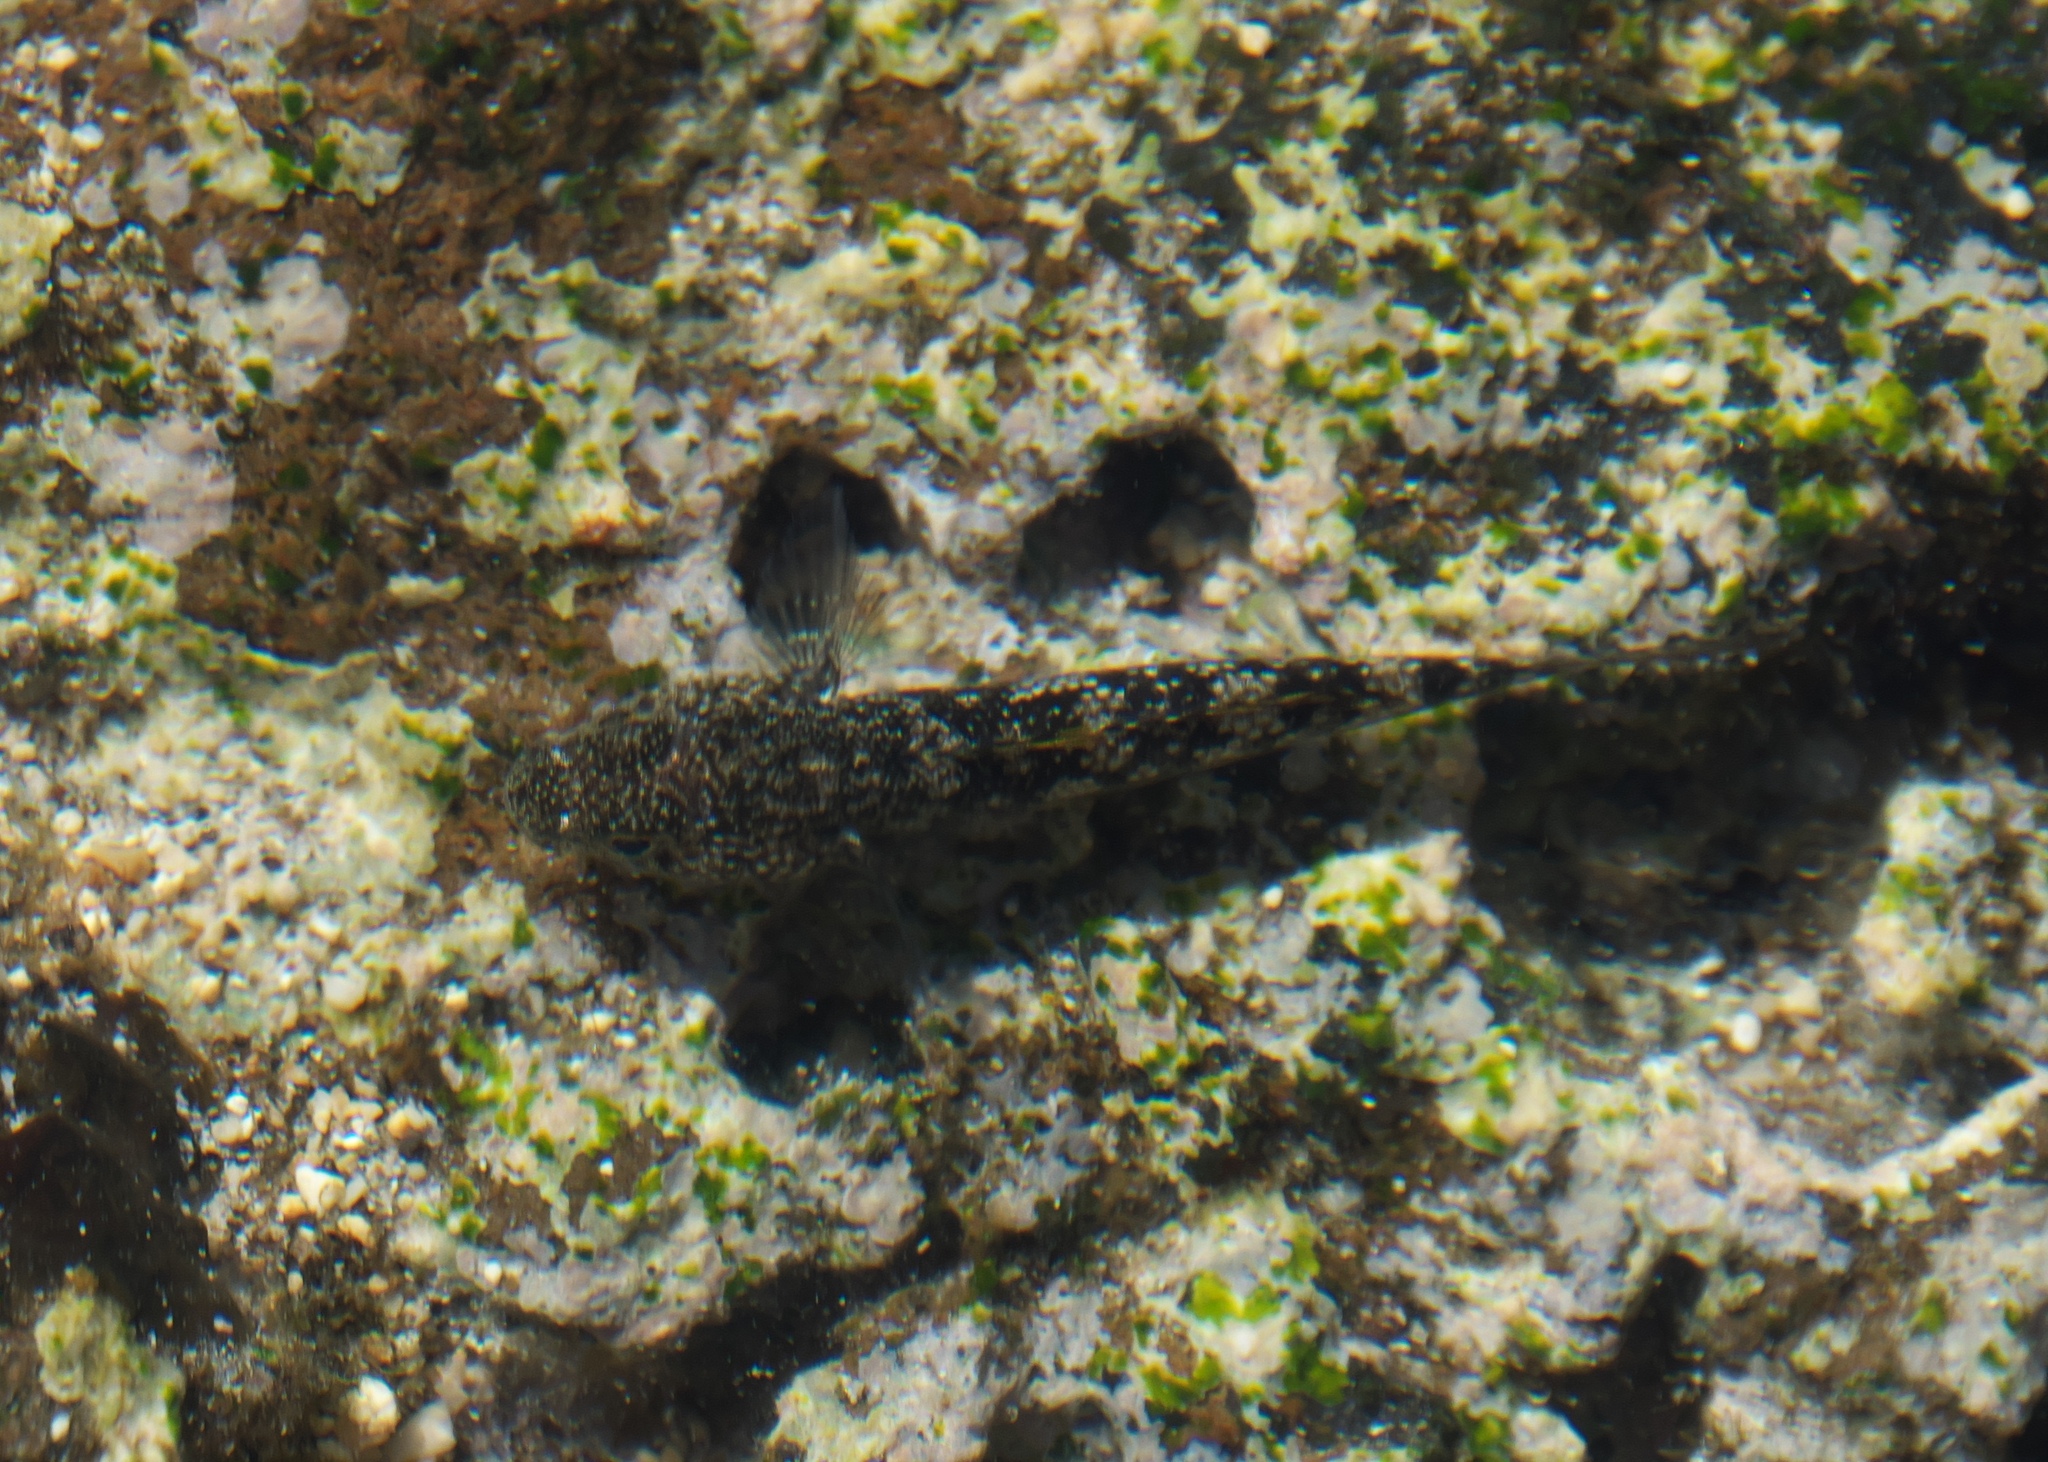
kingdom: Animalia
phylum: Chordata
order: Perciformes
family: Gobiidae
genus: Bathygobius
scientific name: Bathygobius coalitus
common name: Whitespotted goby
